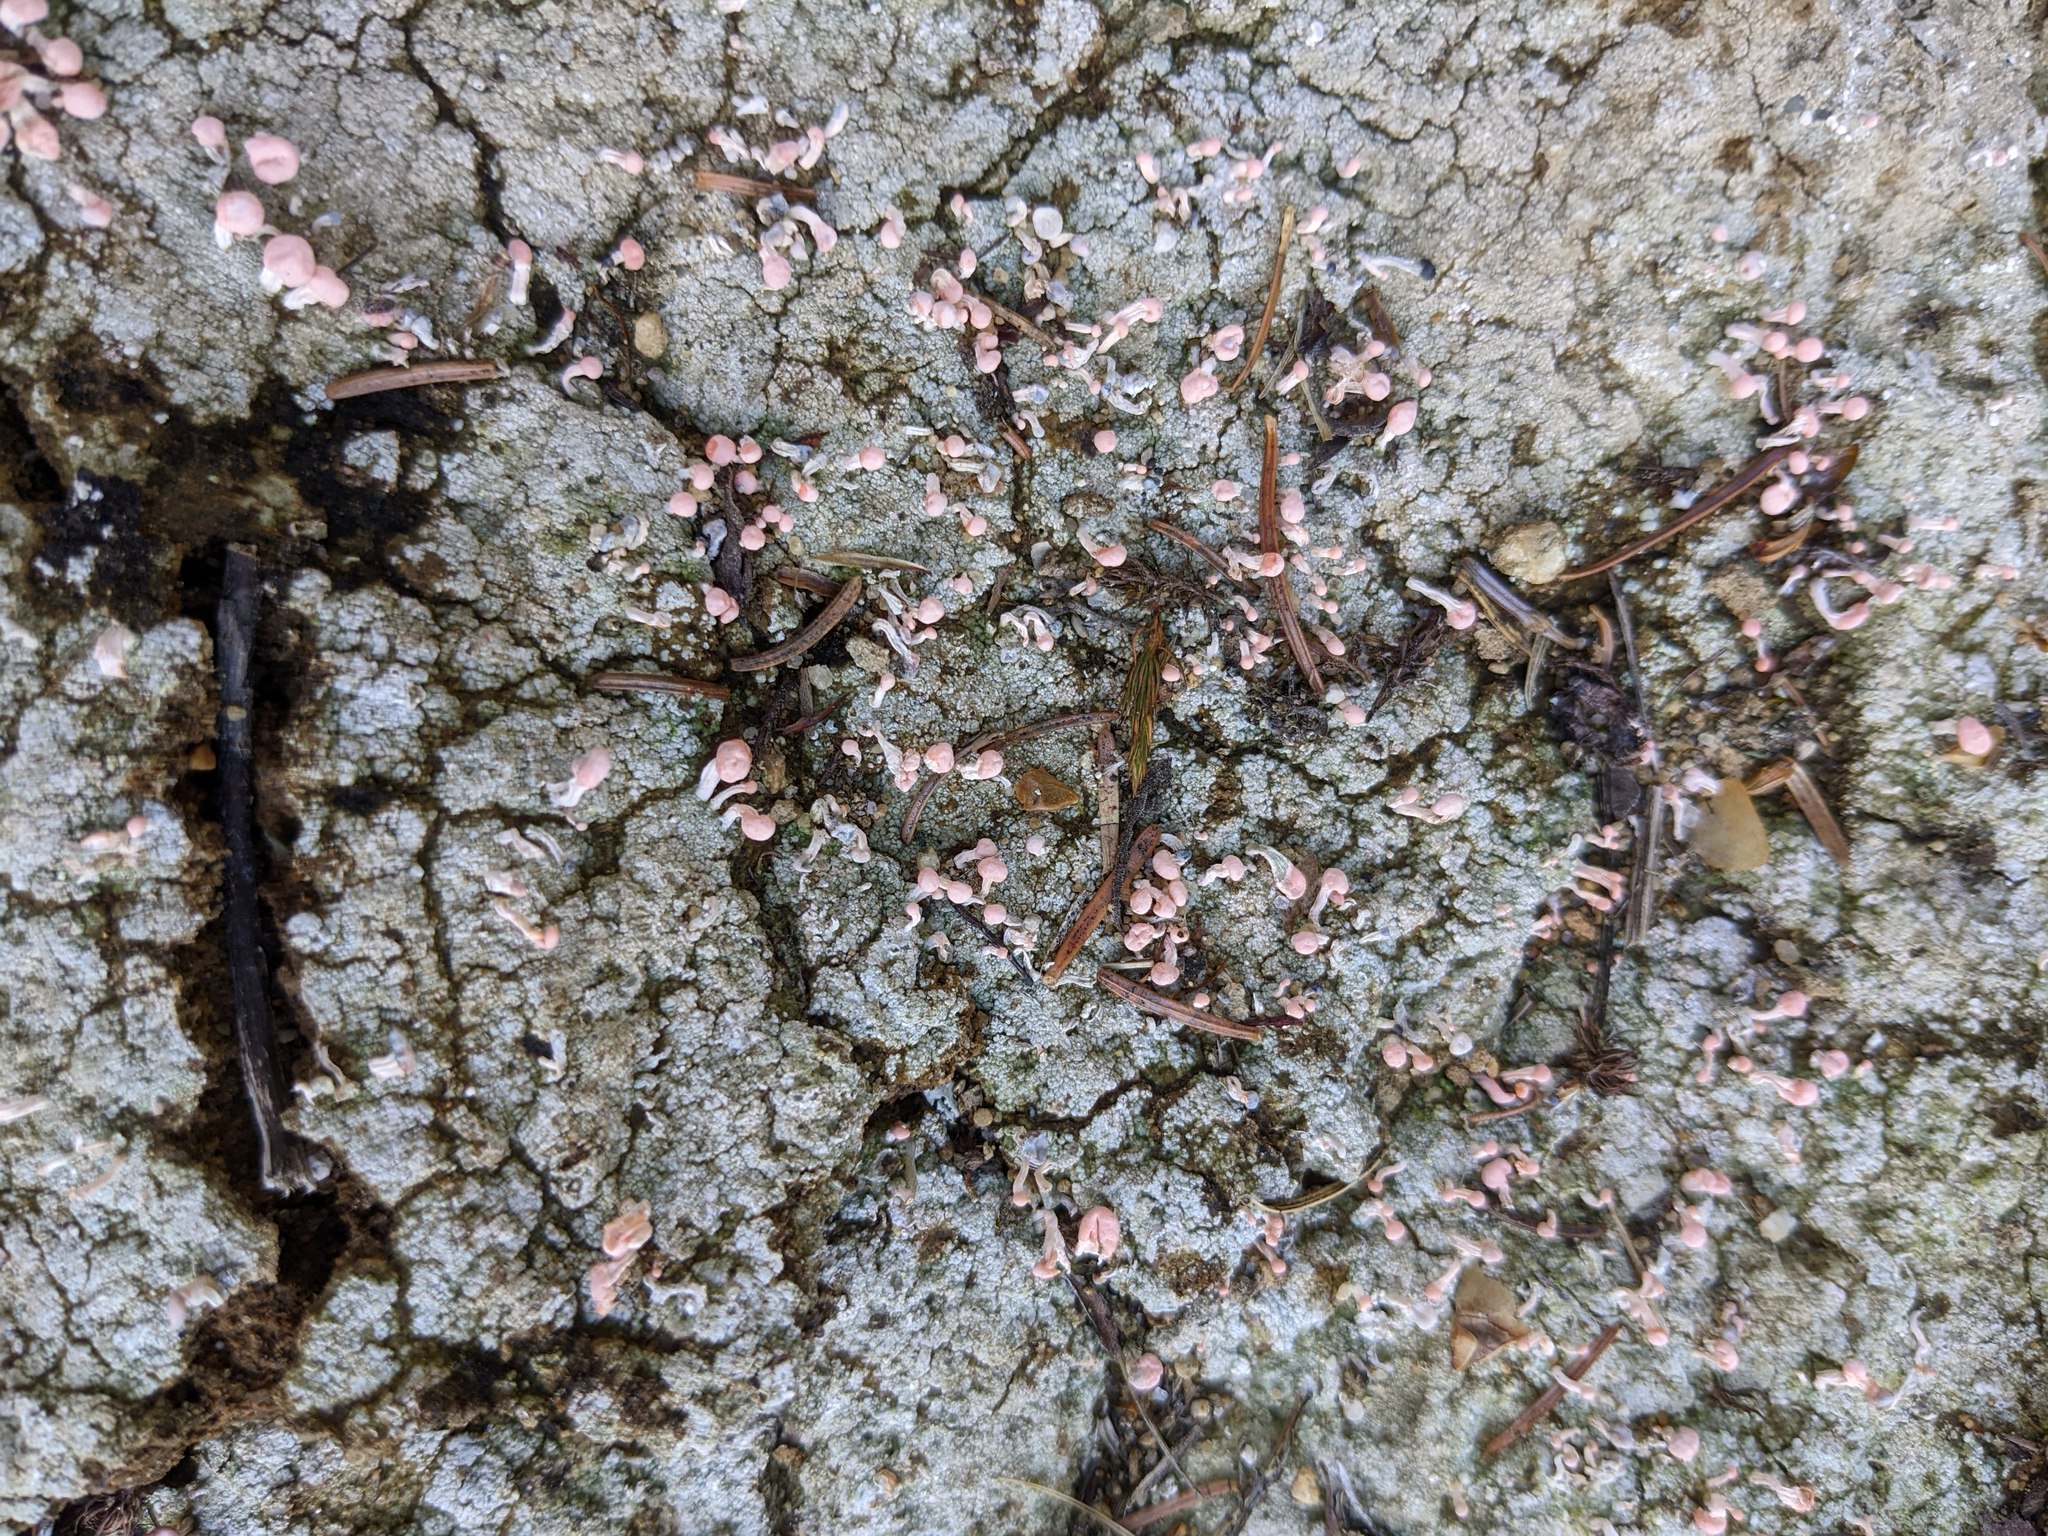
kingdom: Fungi
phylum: Ascomycota
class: Lecanoromycetes
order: Pertusariales
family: Icmadophilaceae
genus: Dibaeis
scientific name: Dibaeis baeomyces
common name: Pink earth lichen
